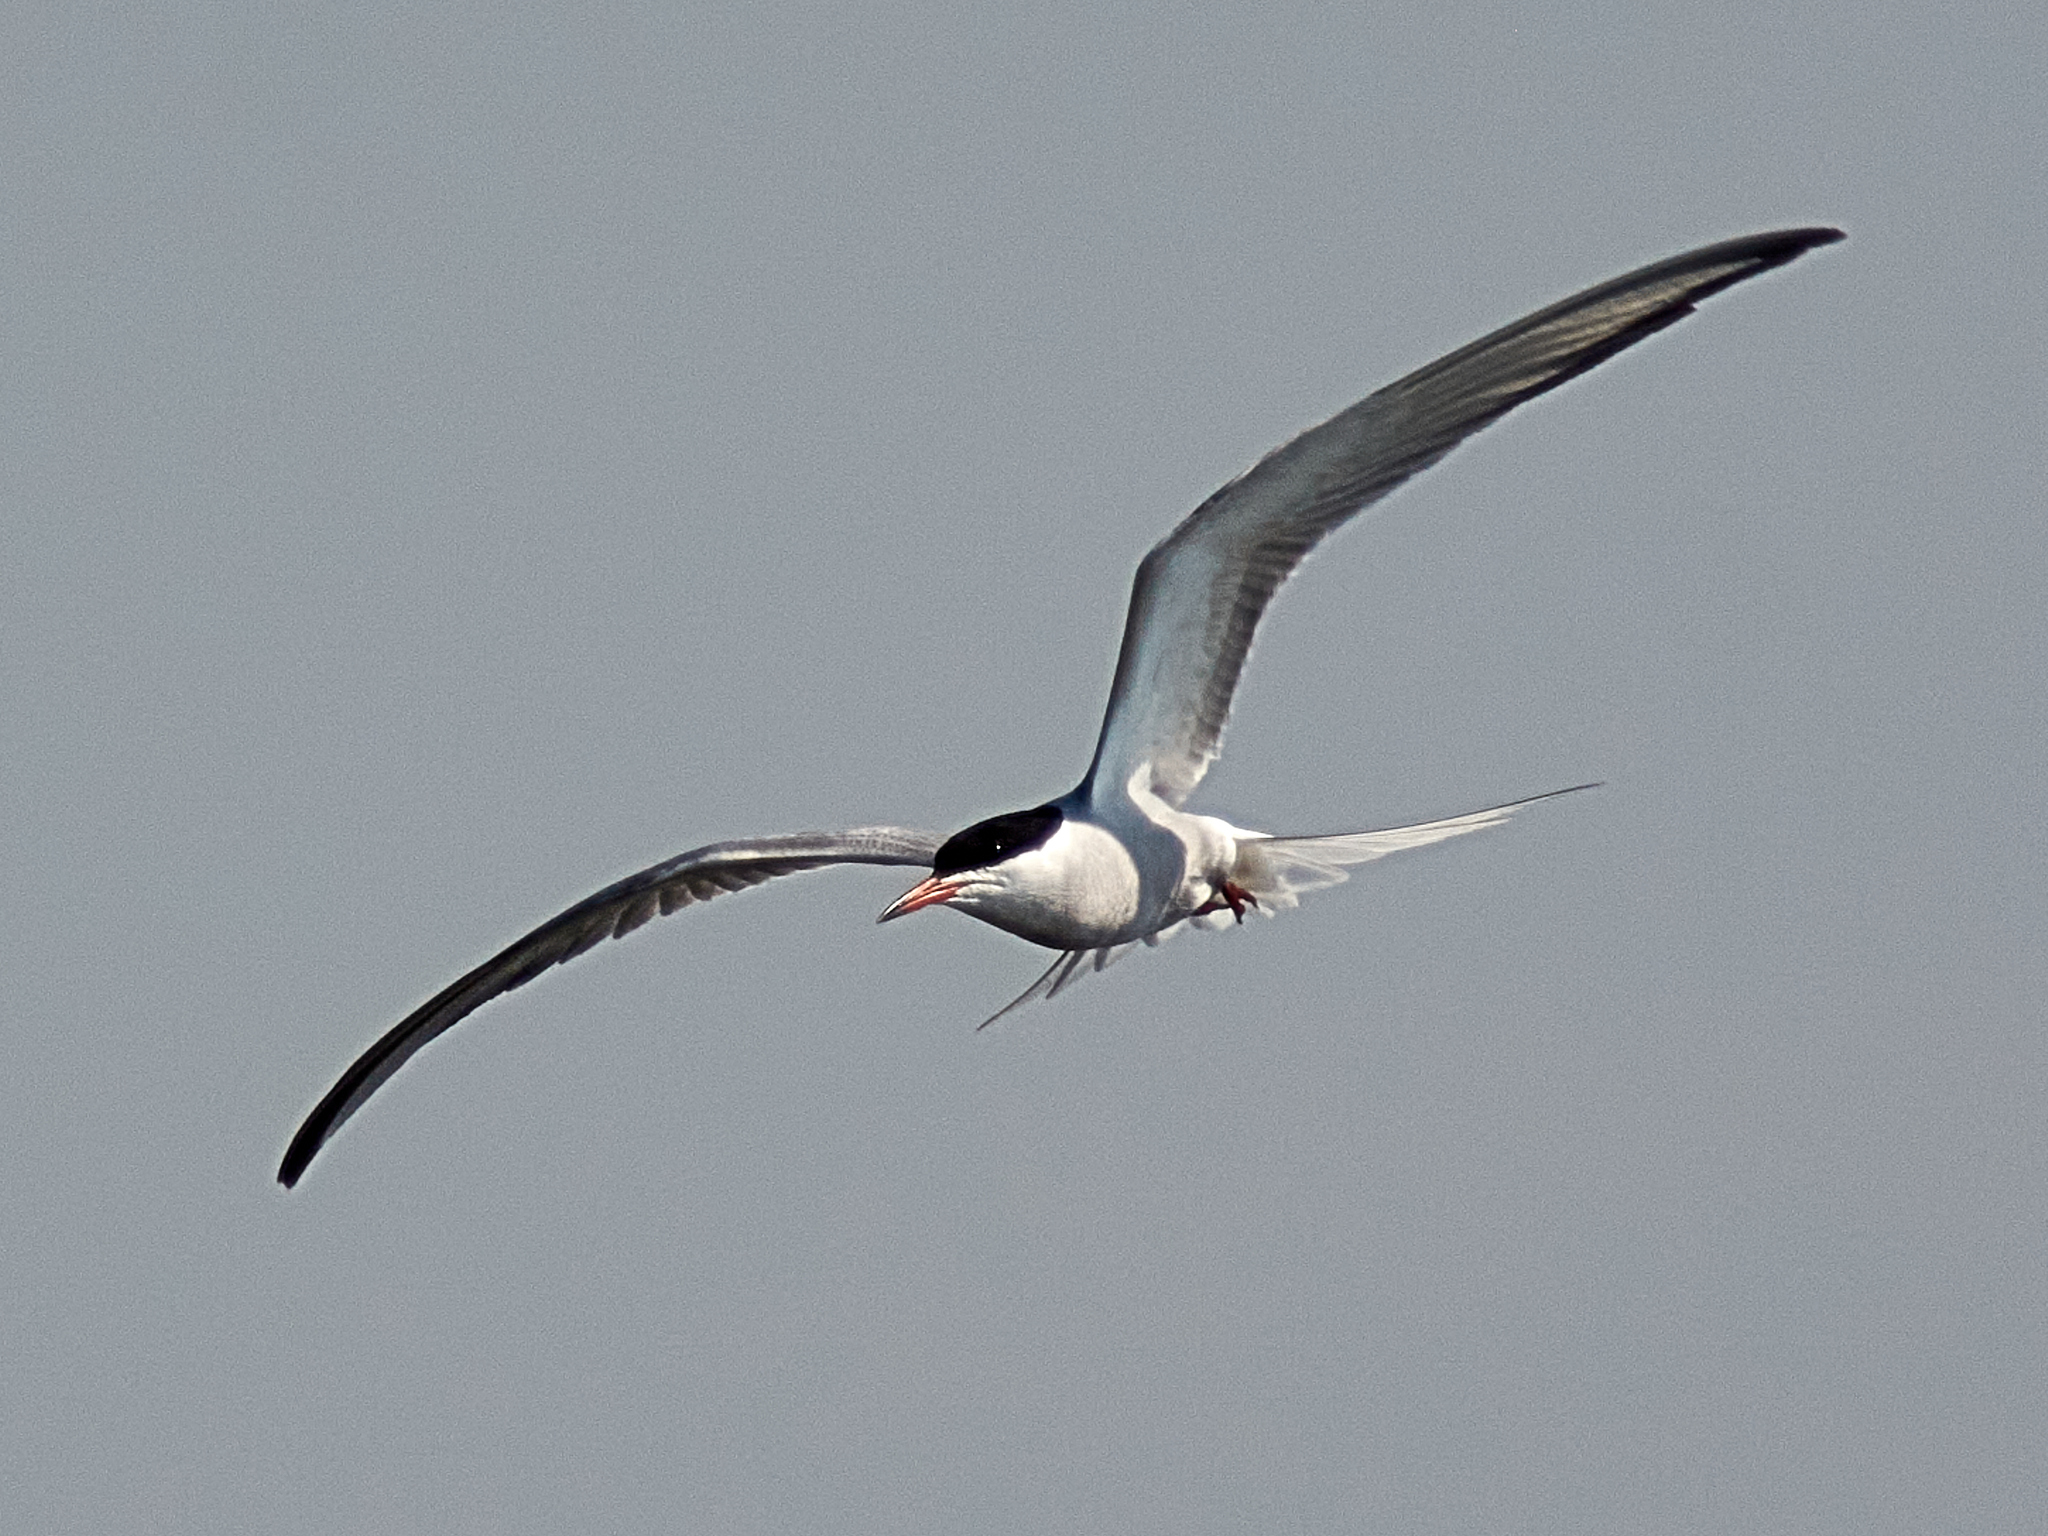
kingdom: Animalia
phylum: Chordata
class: Aves
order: Charadriiformes
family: Laridae
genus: Sterna
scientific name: Sterna hirundo
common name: Common tern
